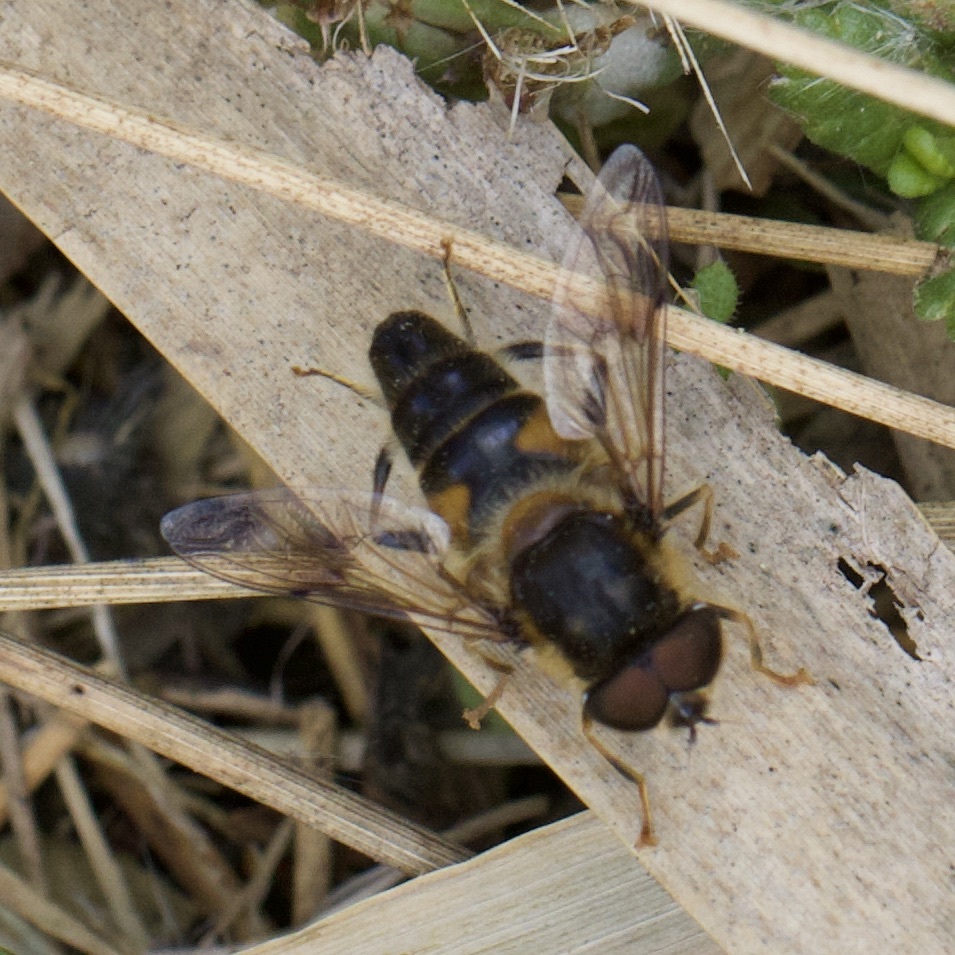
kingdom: Animalia
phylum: Arthropoda
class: Insecta
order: Diptera
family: Syrphidae
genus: Eristalis
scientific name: Eristalis pertinax
